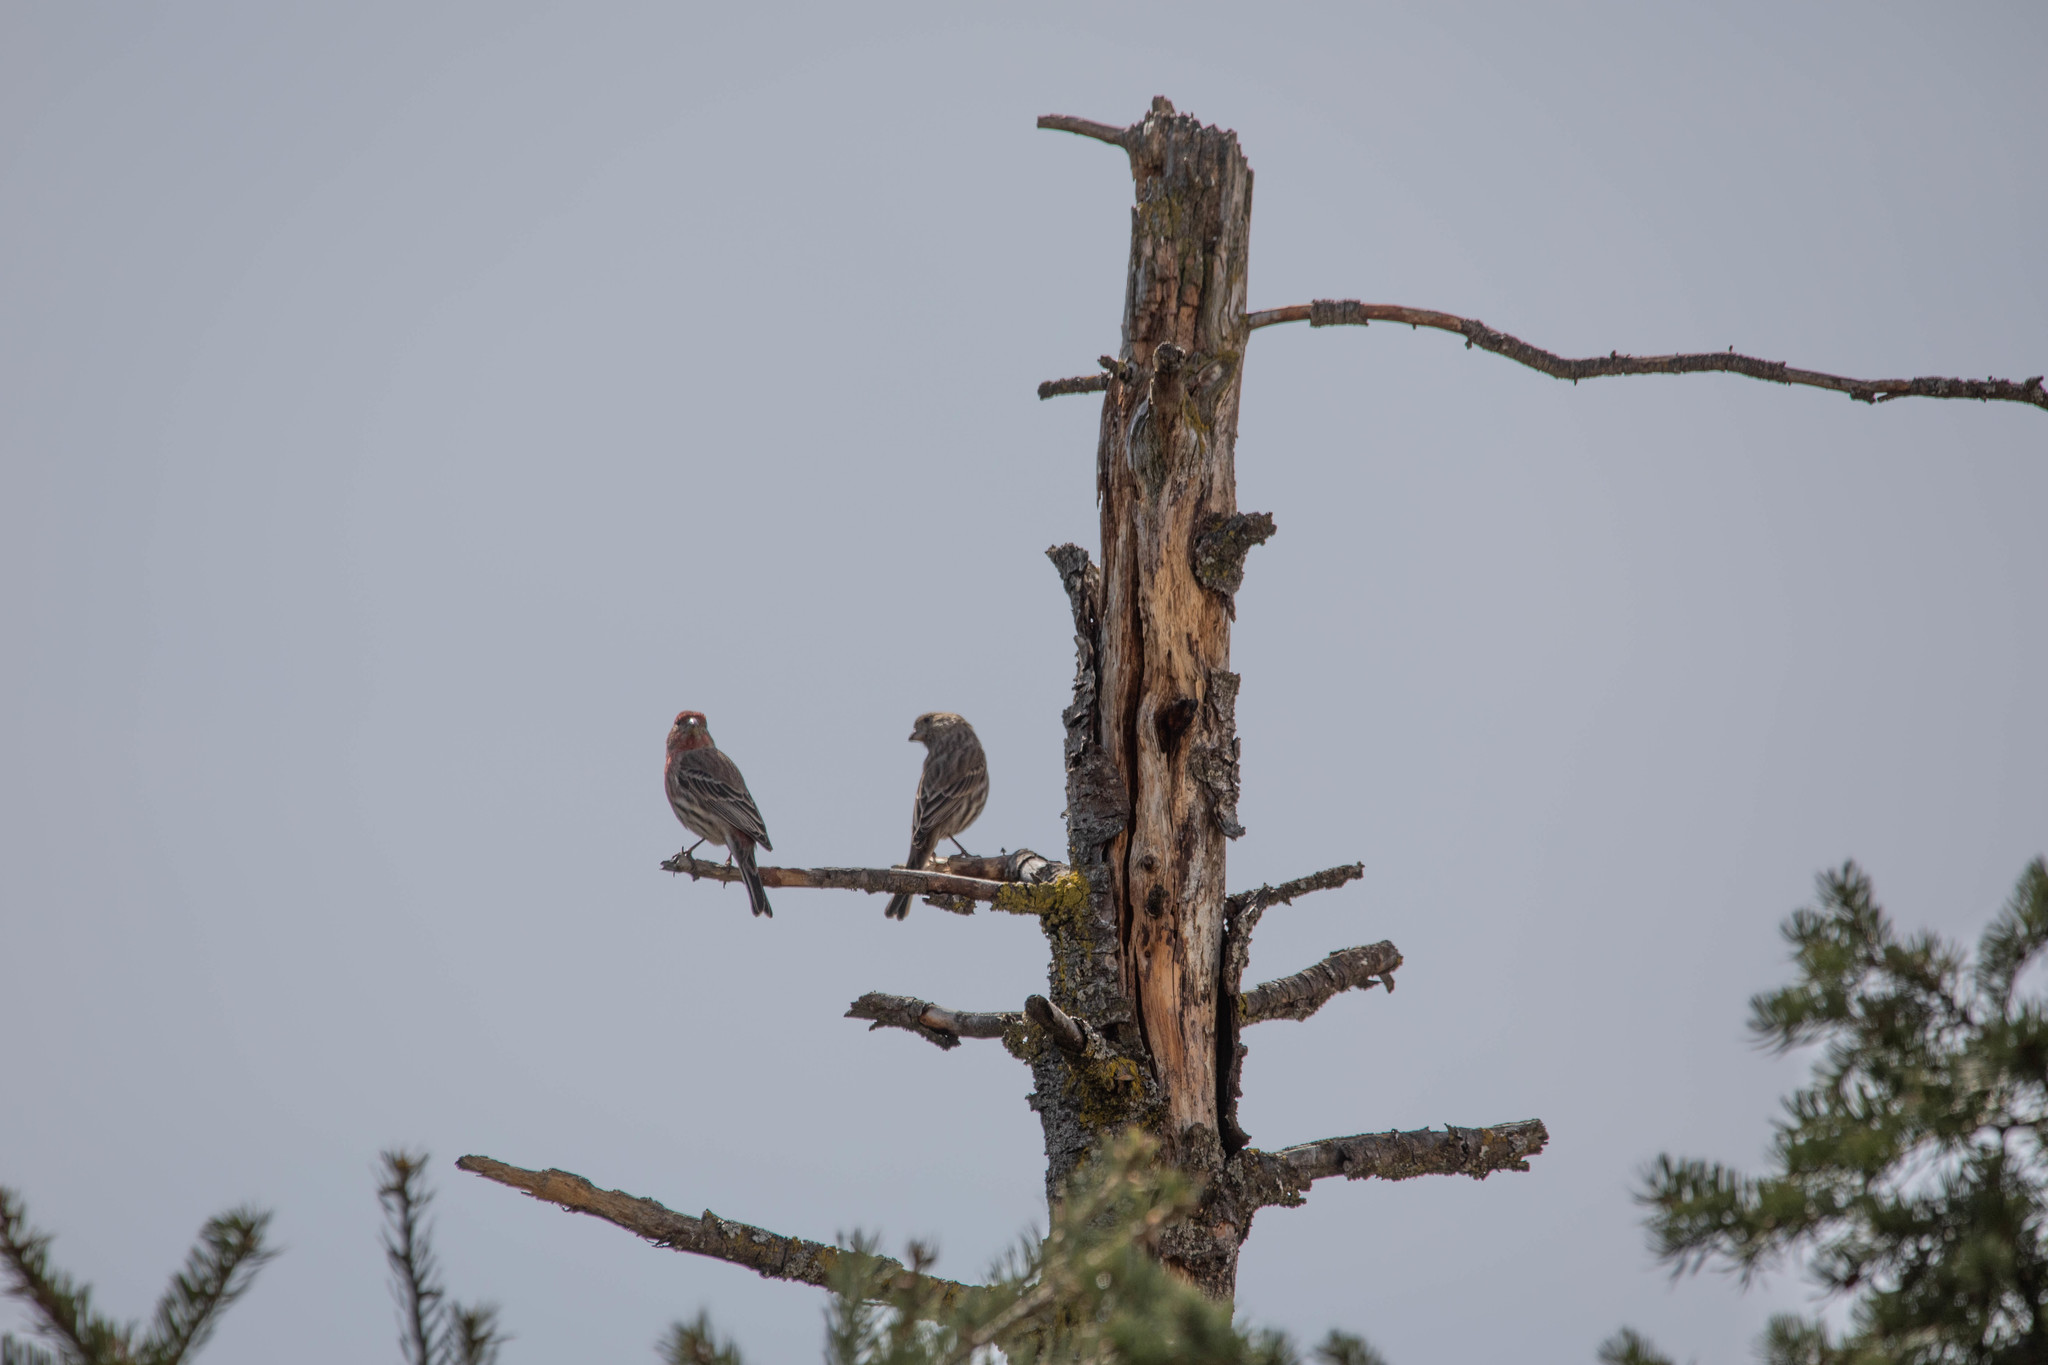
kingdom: Animalia
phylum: Chordata
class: Aves
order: Passeriformes
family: Fringillidae
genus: Haemorhous
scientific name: Haemorhous mexicanus
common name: House finch
